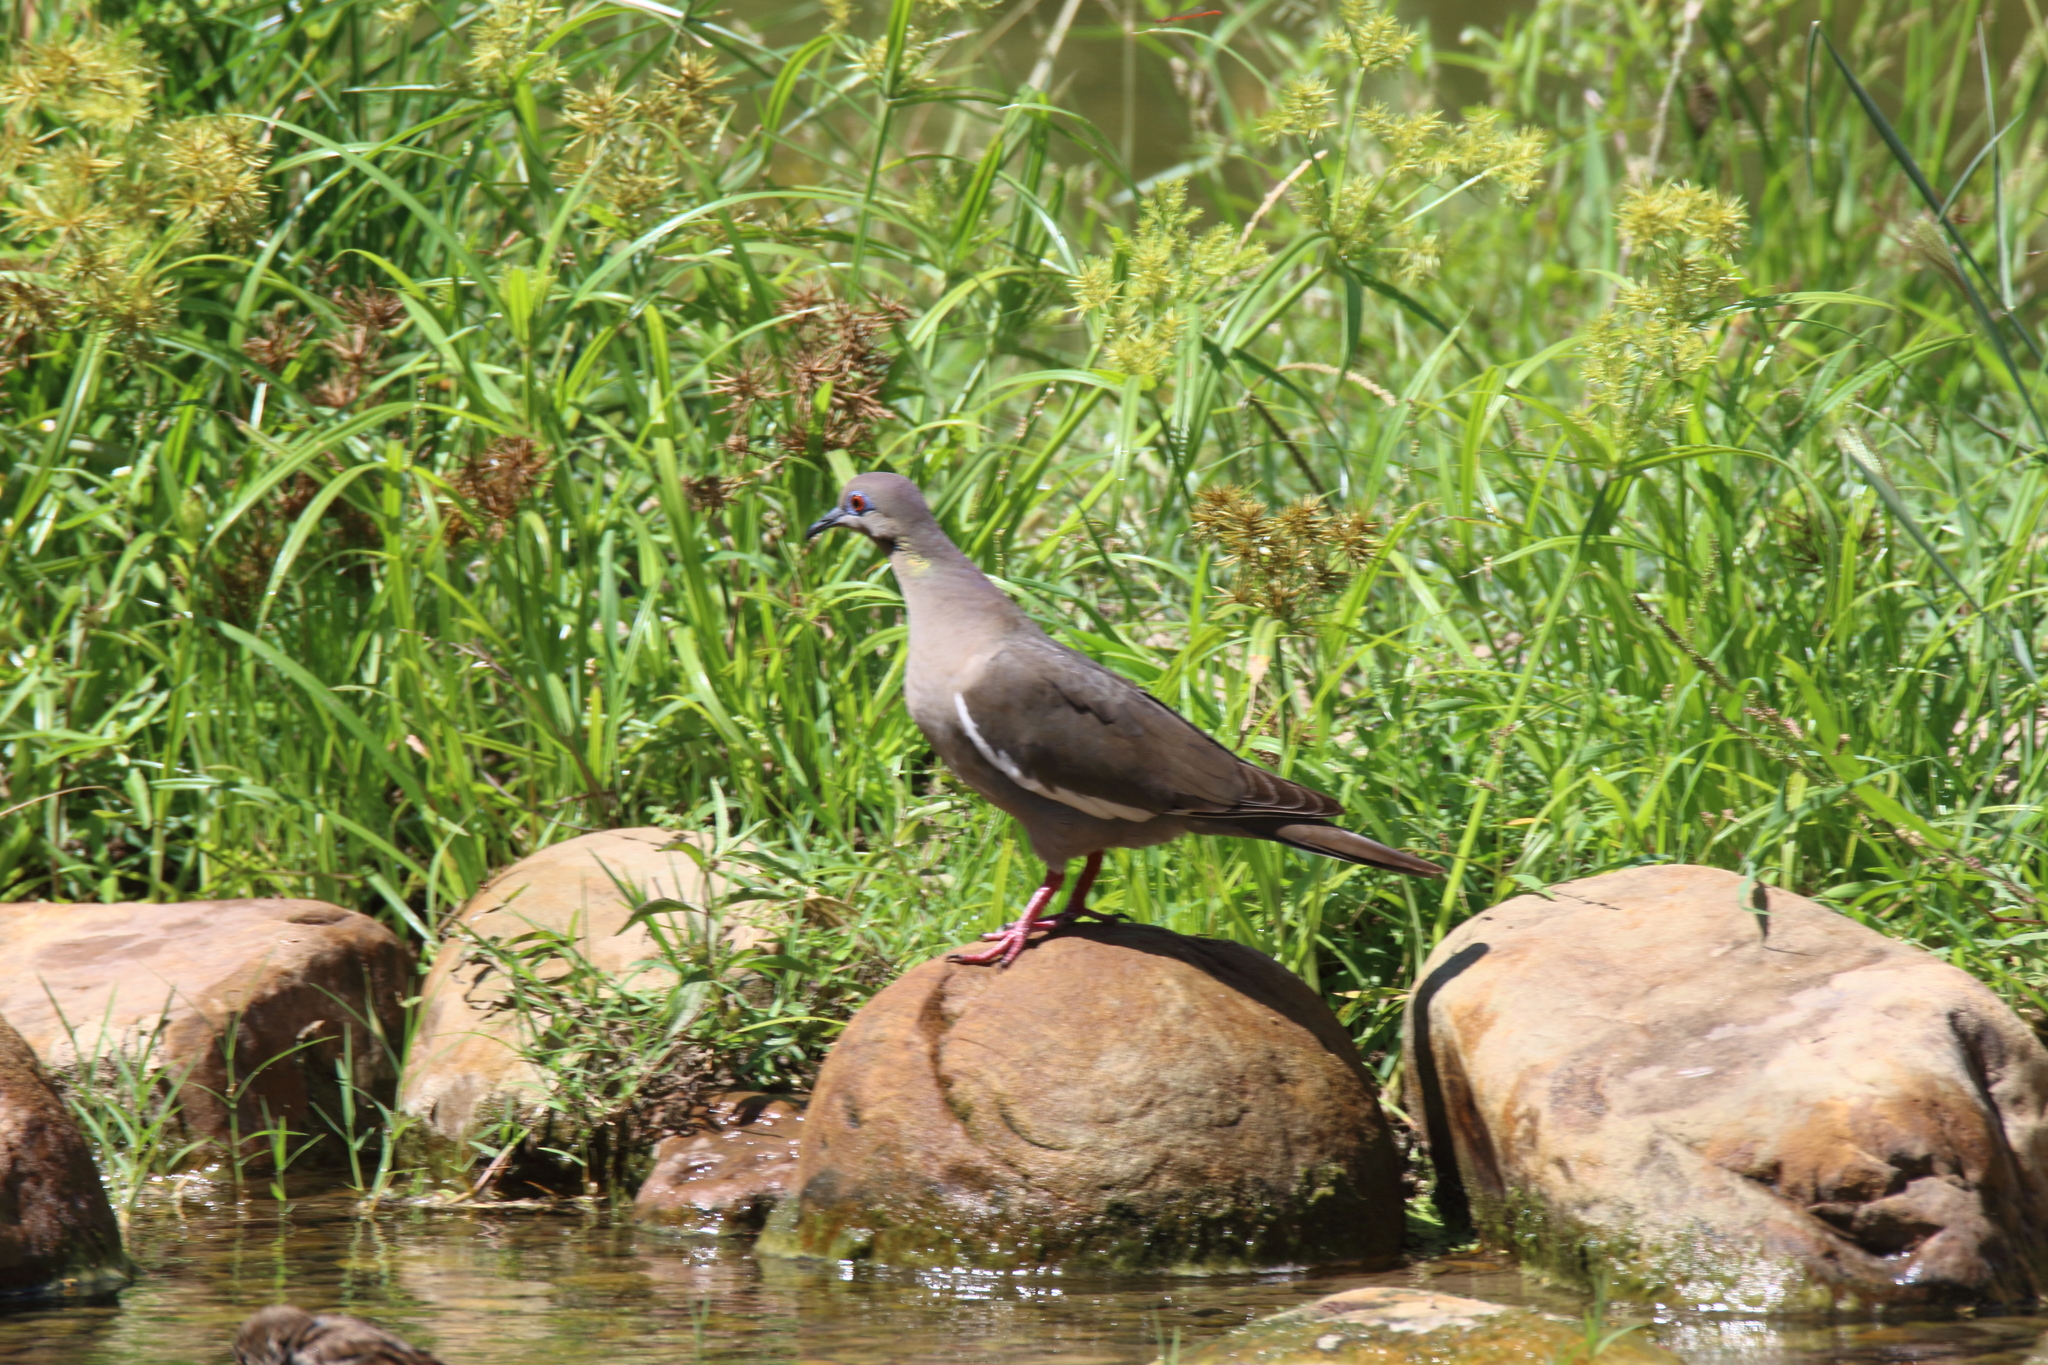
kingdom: Animalia
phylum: Chordata
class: Aves
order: Columbiformes
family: Columbidae
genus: Zenaida
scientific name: Zenaida asiatica
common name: White-winged dove
